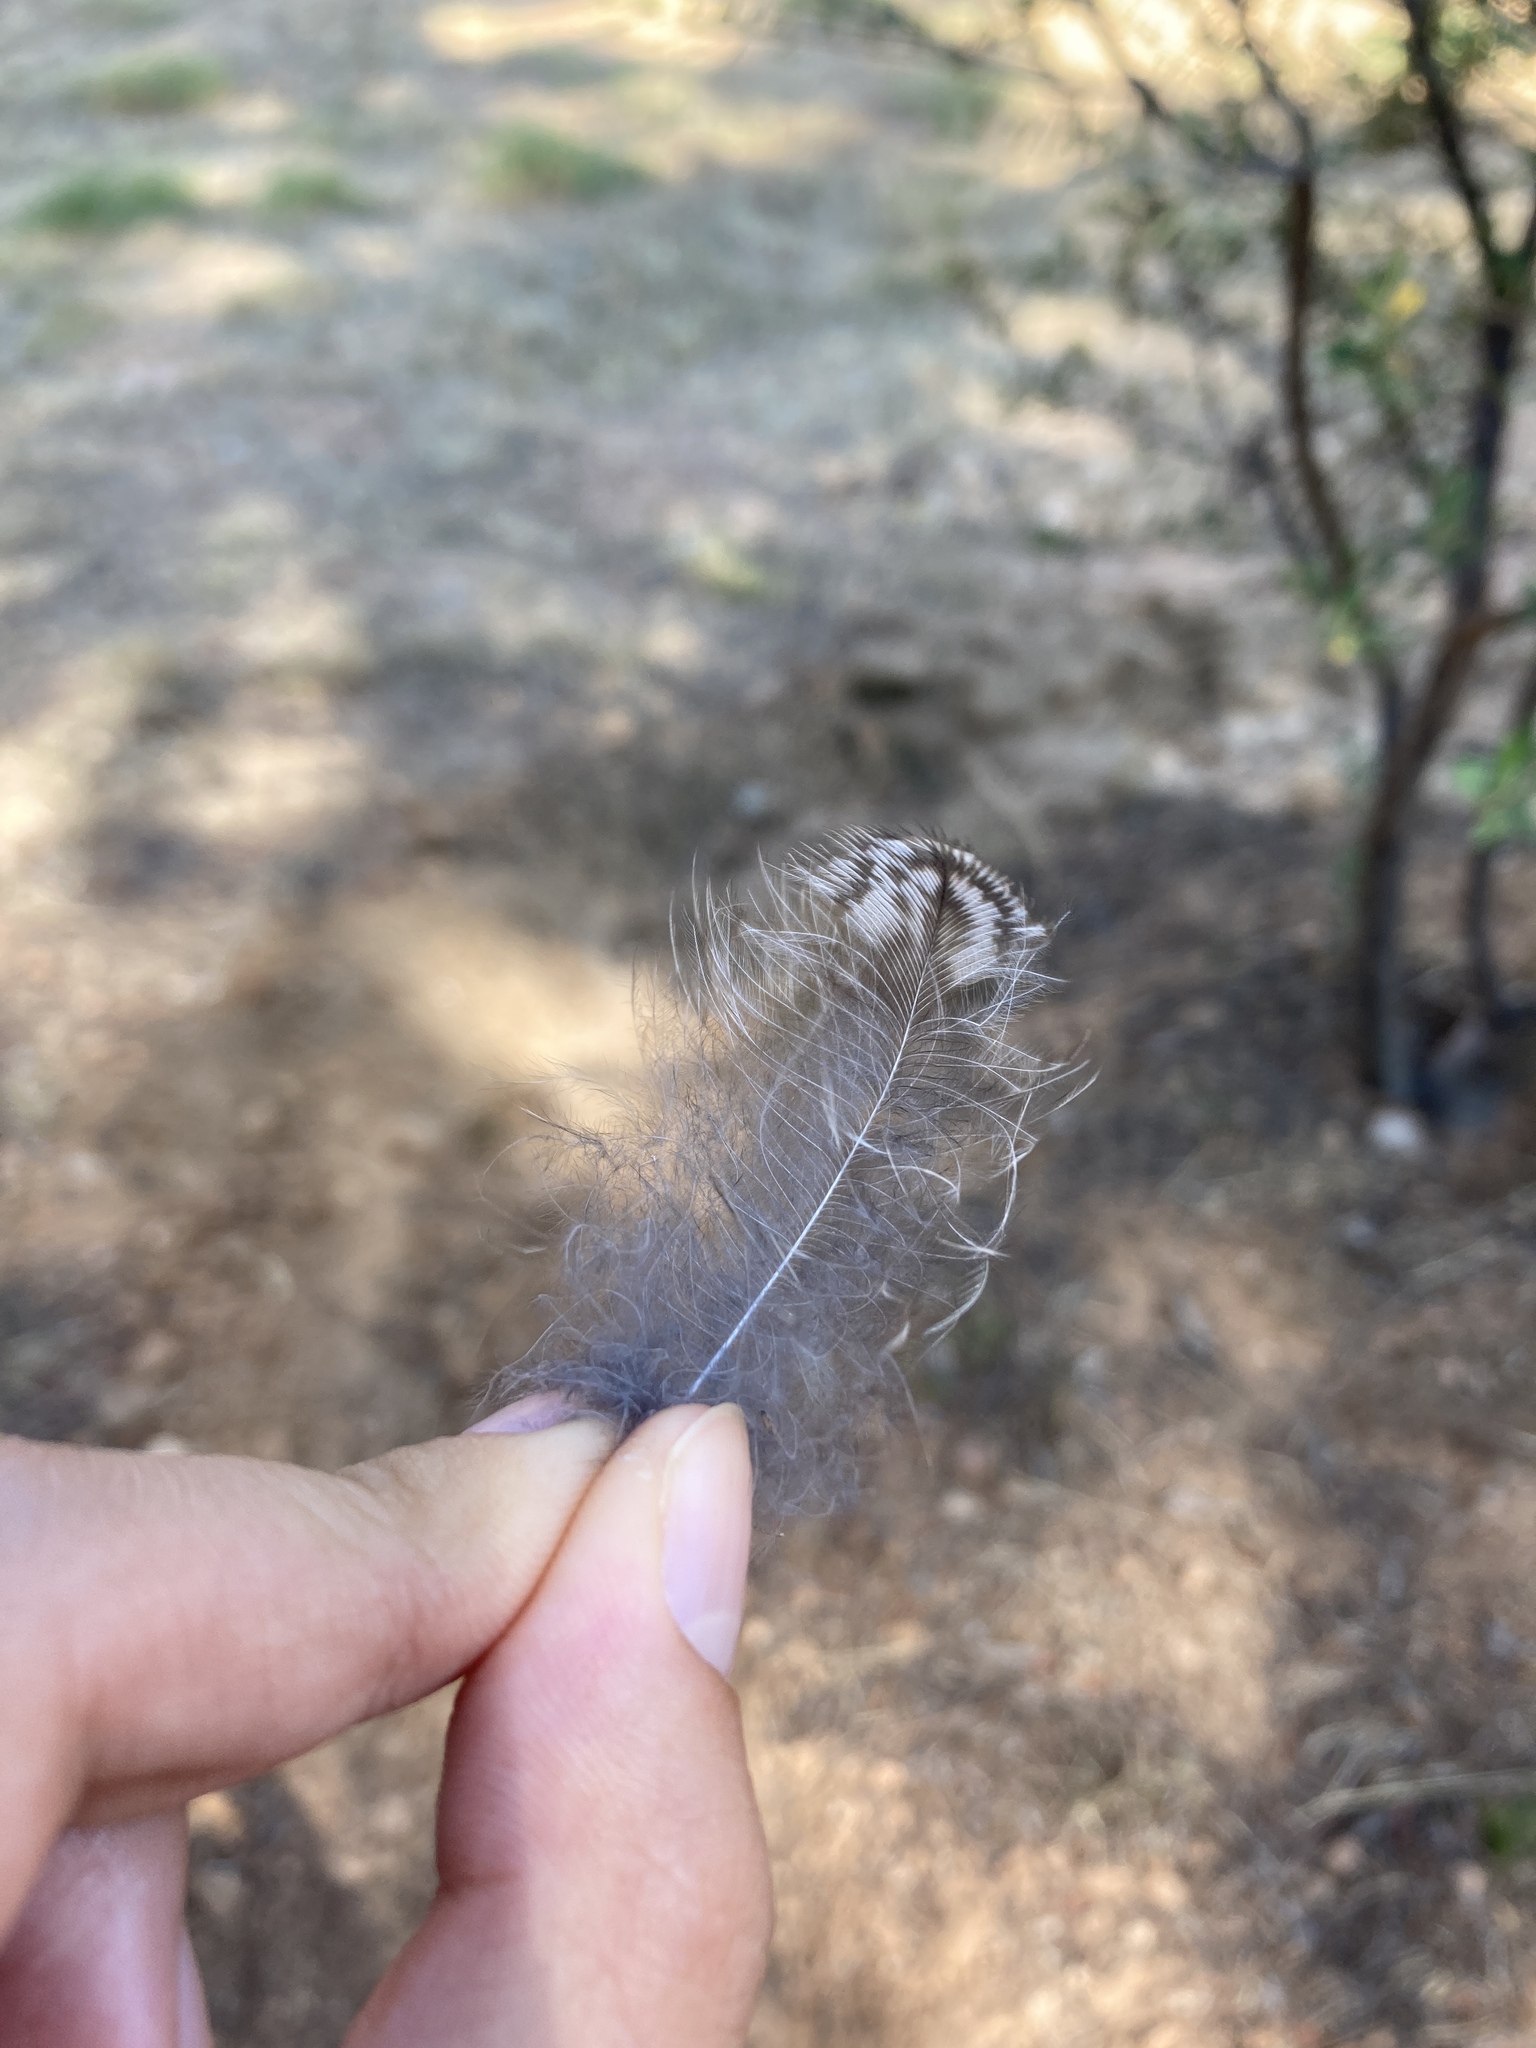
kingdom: Animalia
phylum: Chordata
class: Aves
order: Strigiformes
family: Strigidae
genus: Strix
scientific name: Strix aluco
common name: Tawny owl
